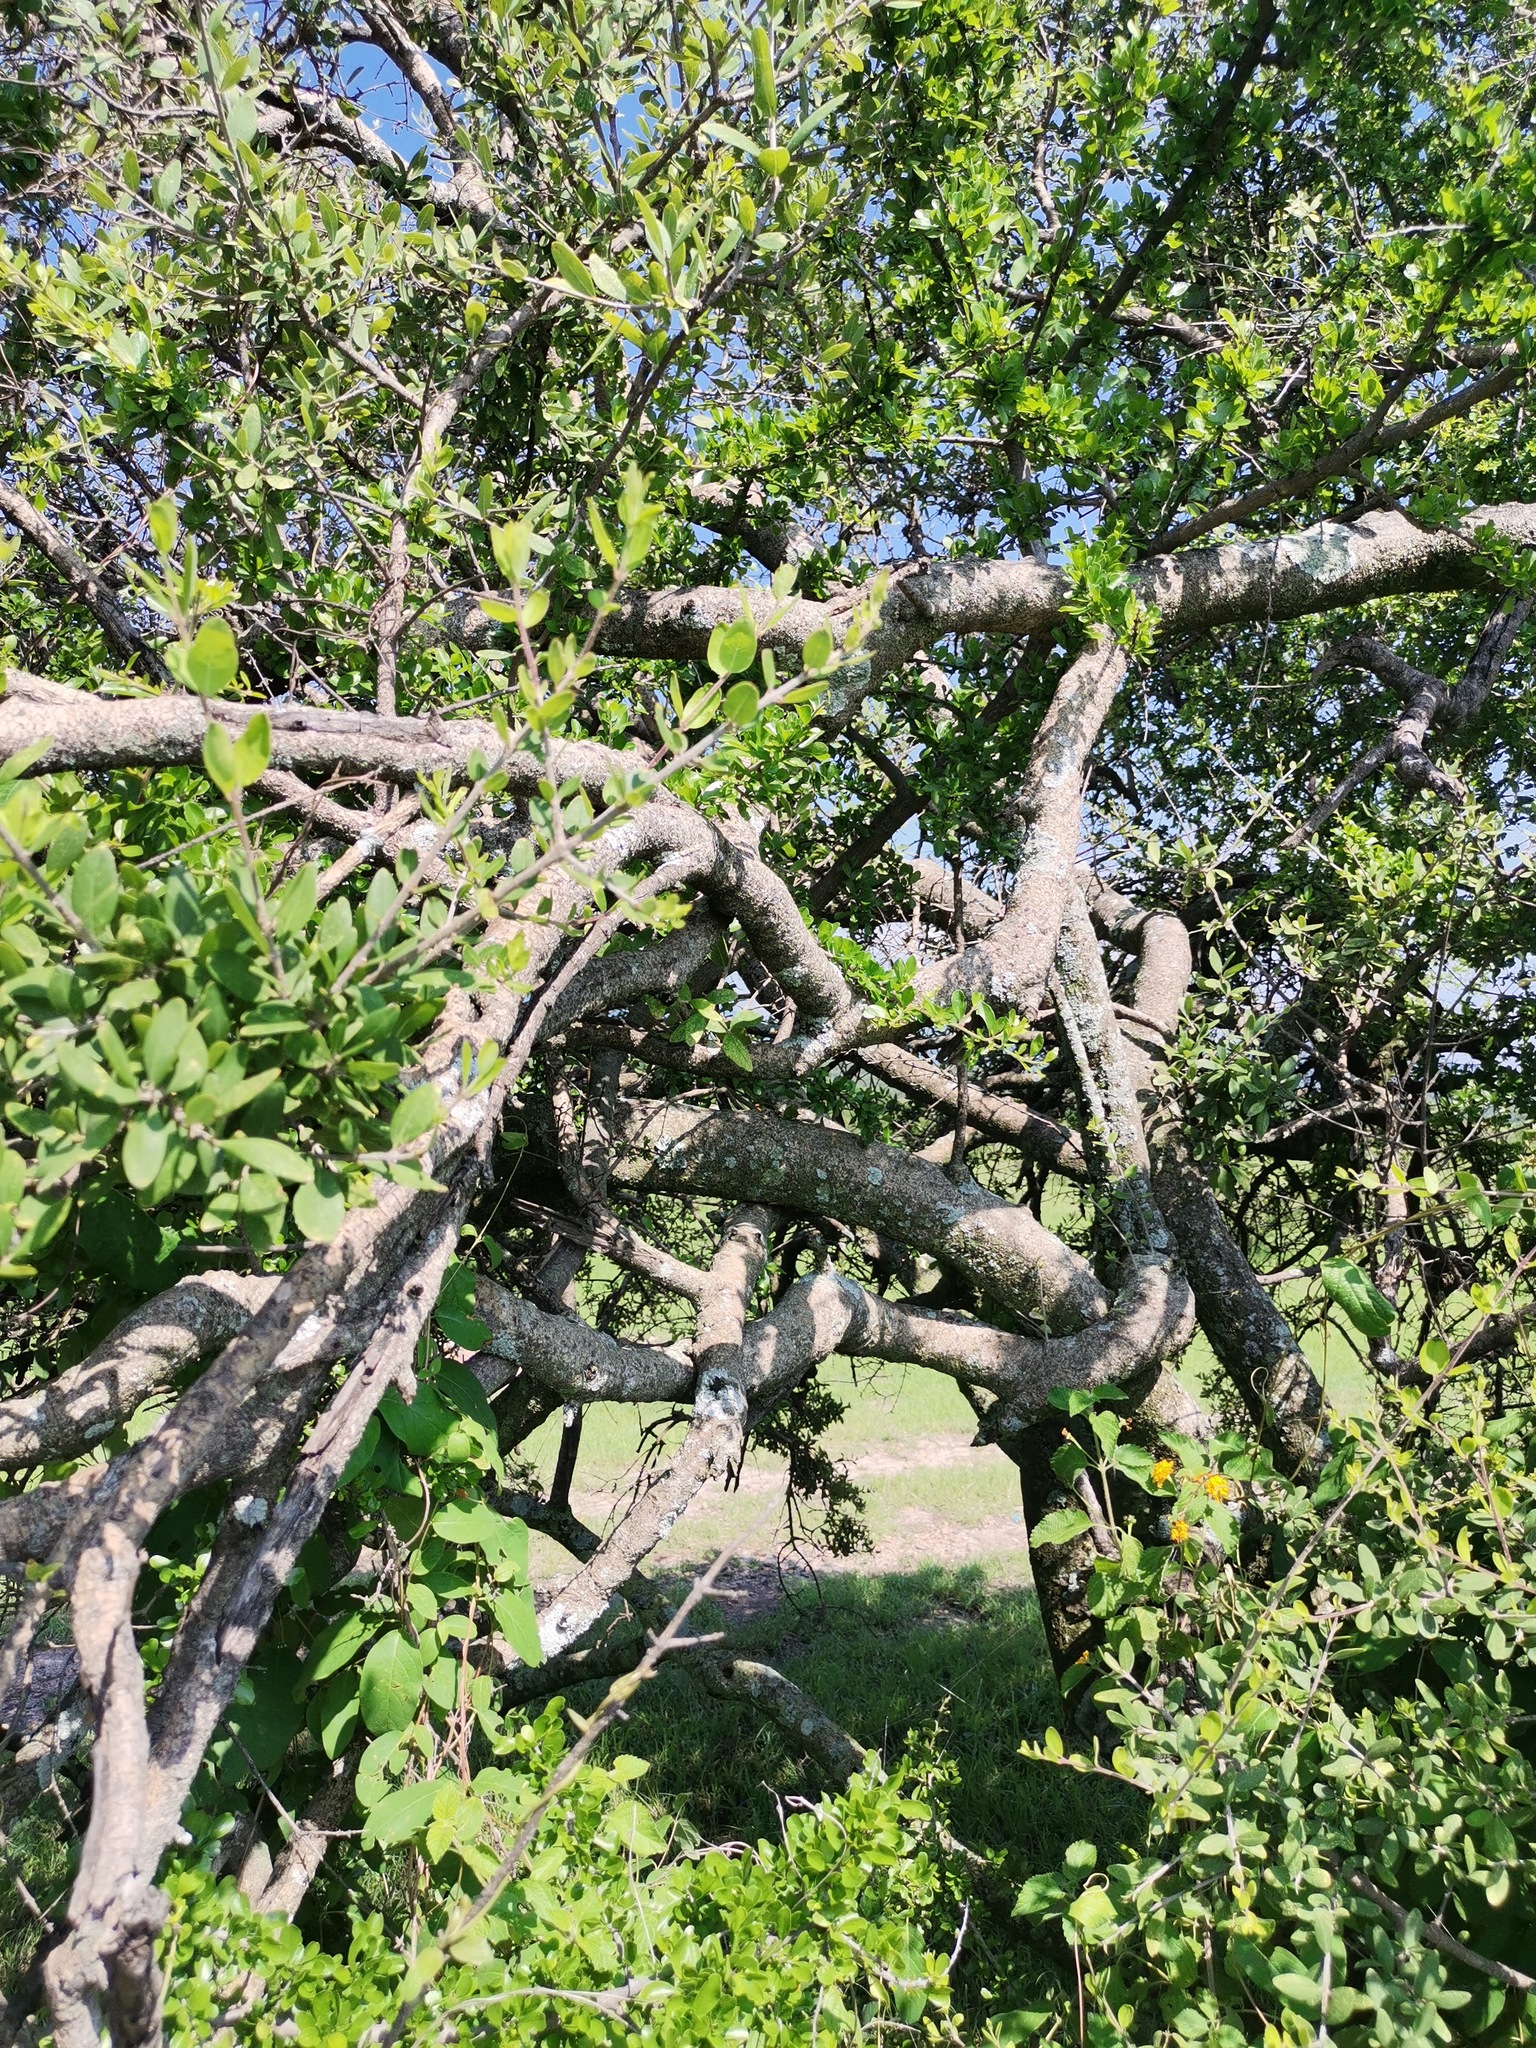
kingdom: Plantae
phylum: Tracheophyta
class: Magnoliopsida
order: Lamiales
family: Oleaceae
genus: Forestiera
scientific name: Forestiera phillyreoides
